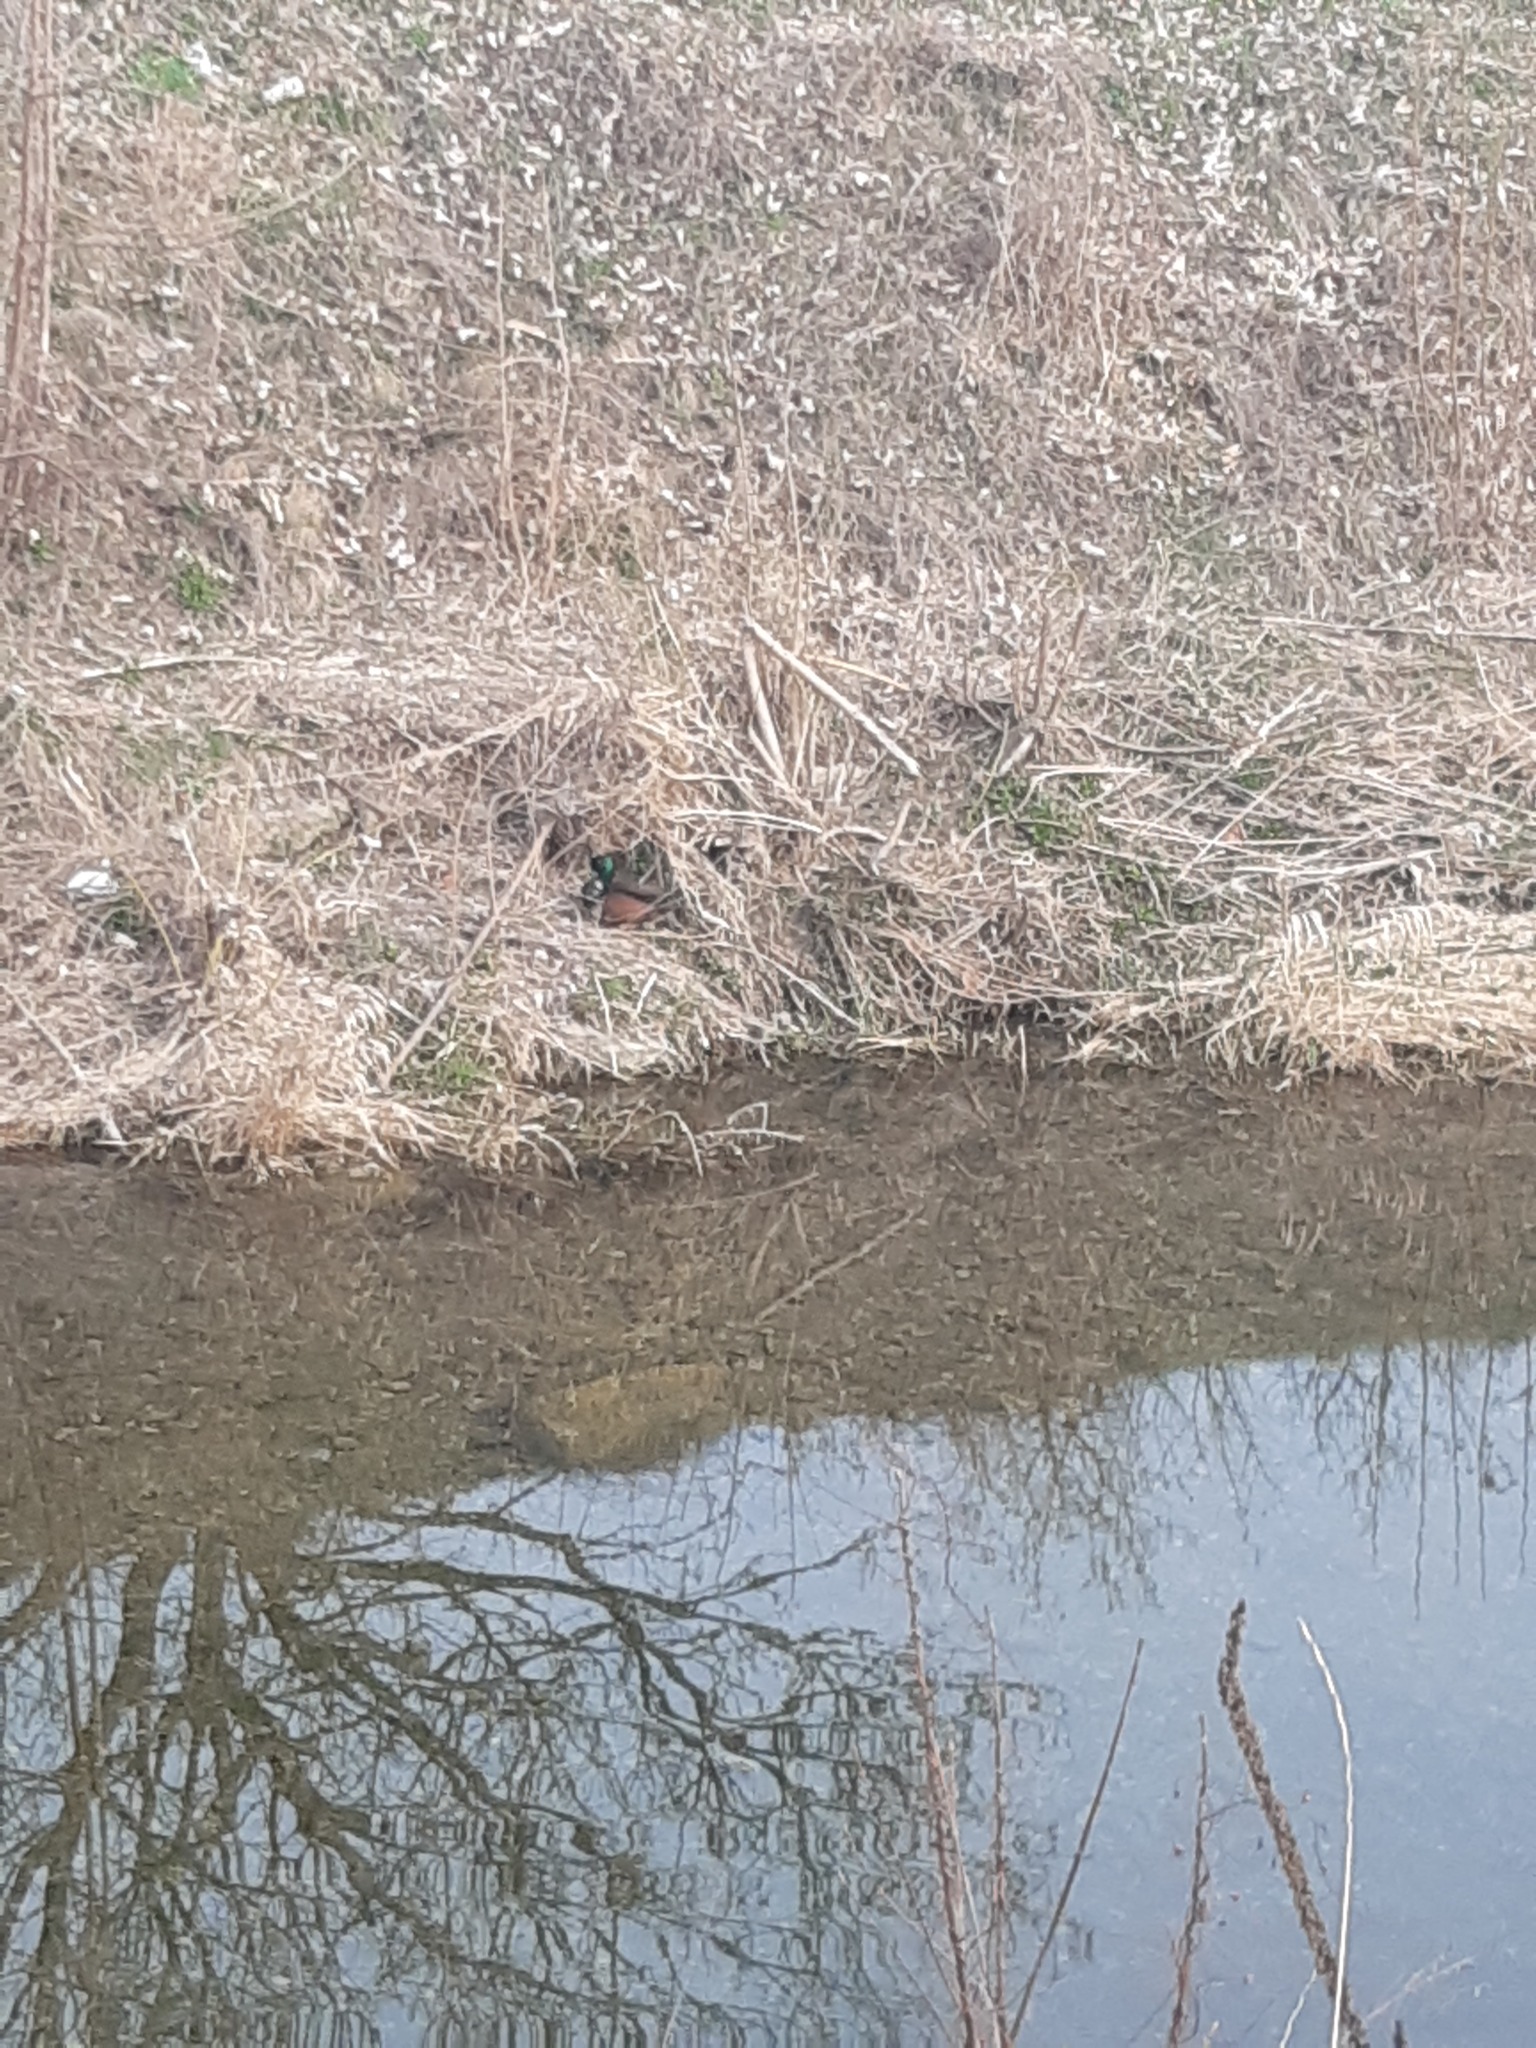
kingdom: Animalia
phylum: Chordata
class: Aves
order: Anseriformes
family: Anatidae
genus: Anas
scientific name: Anas platyrhynchos
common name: Mallard
